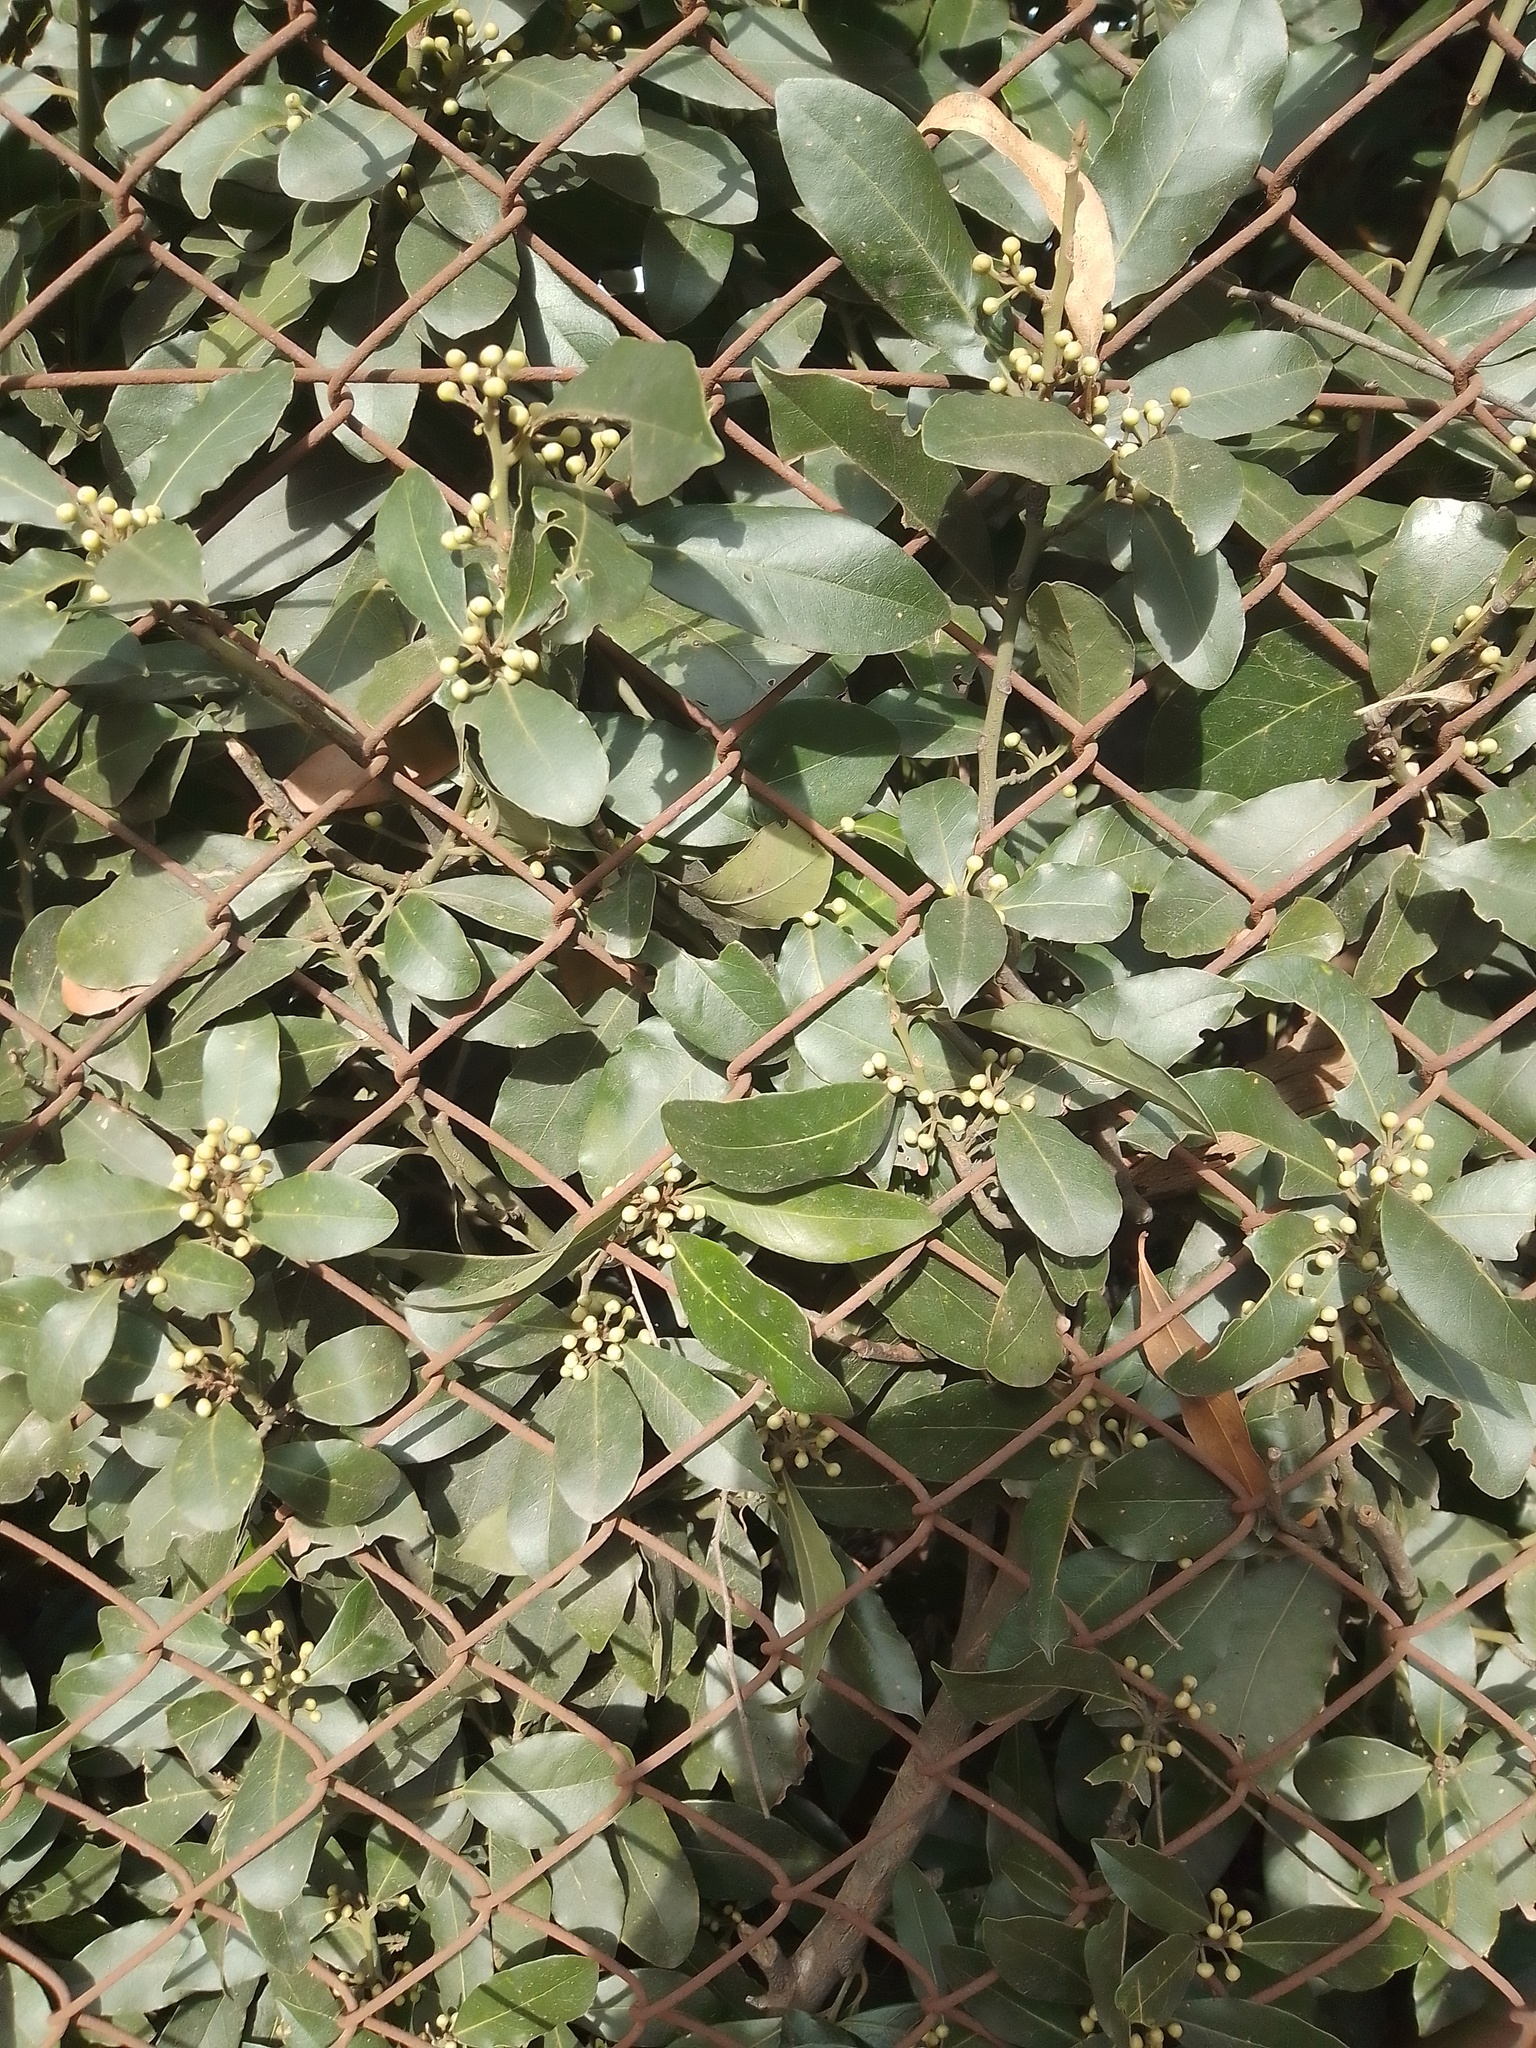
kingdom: Plantae
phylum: Tracheophyta
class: Magnoliopsida
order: Laurales
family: Lauraceae
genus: Laurus
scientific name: Laurus nobilis
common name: Bay
